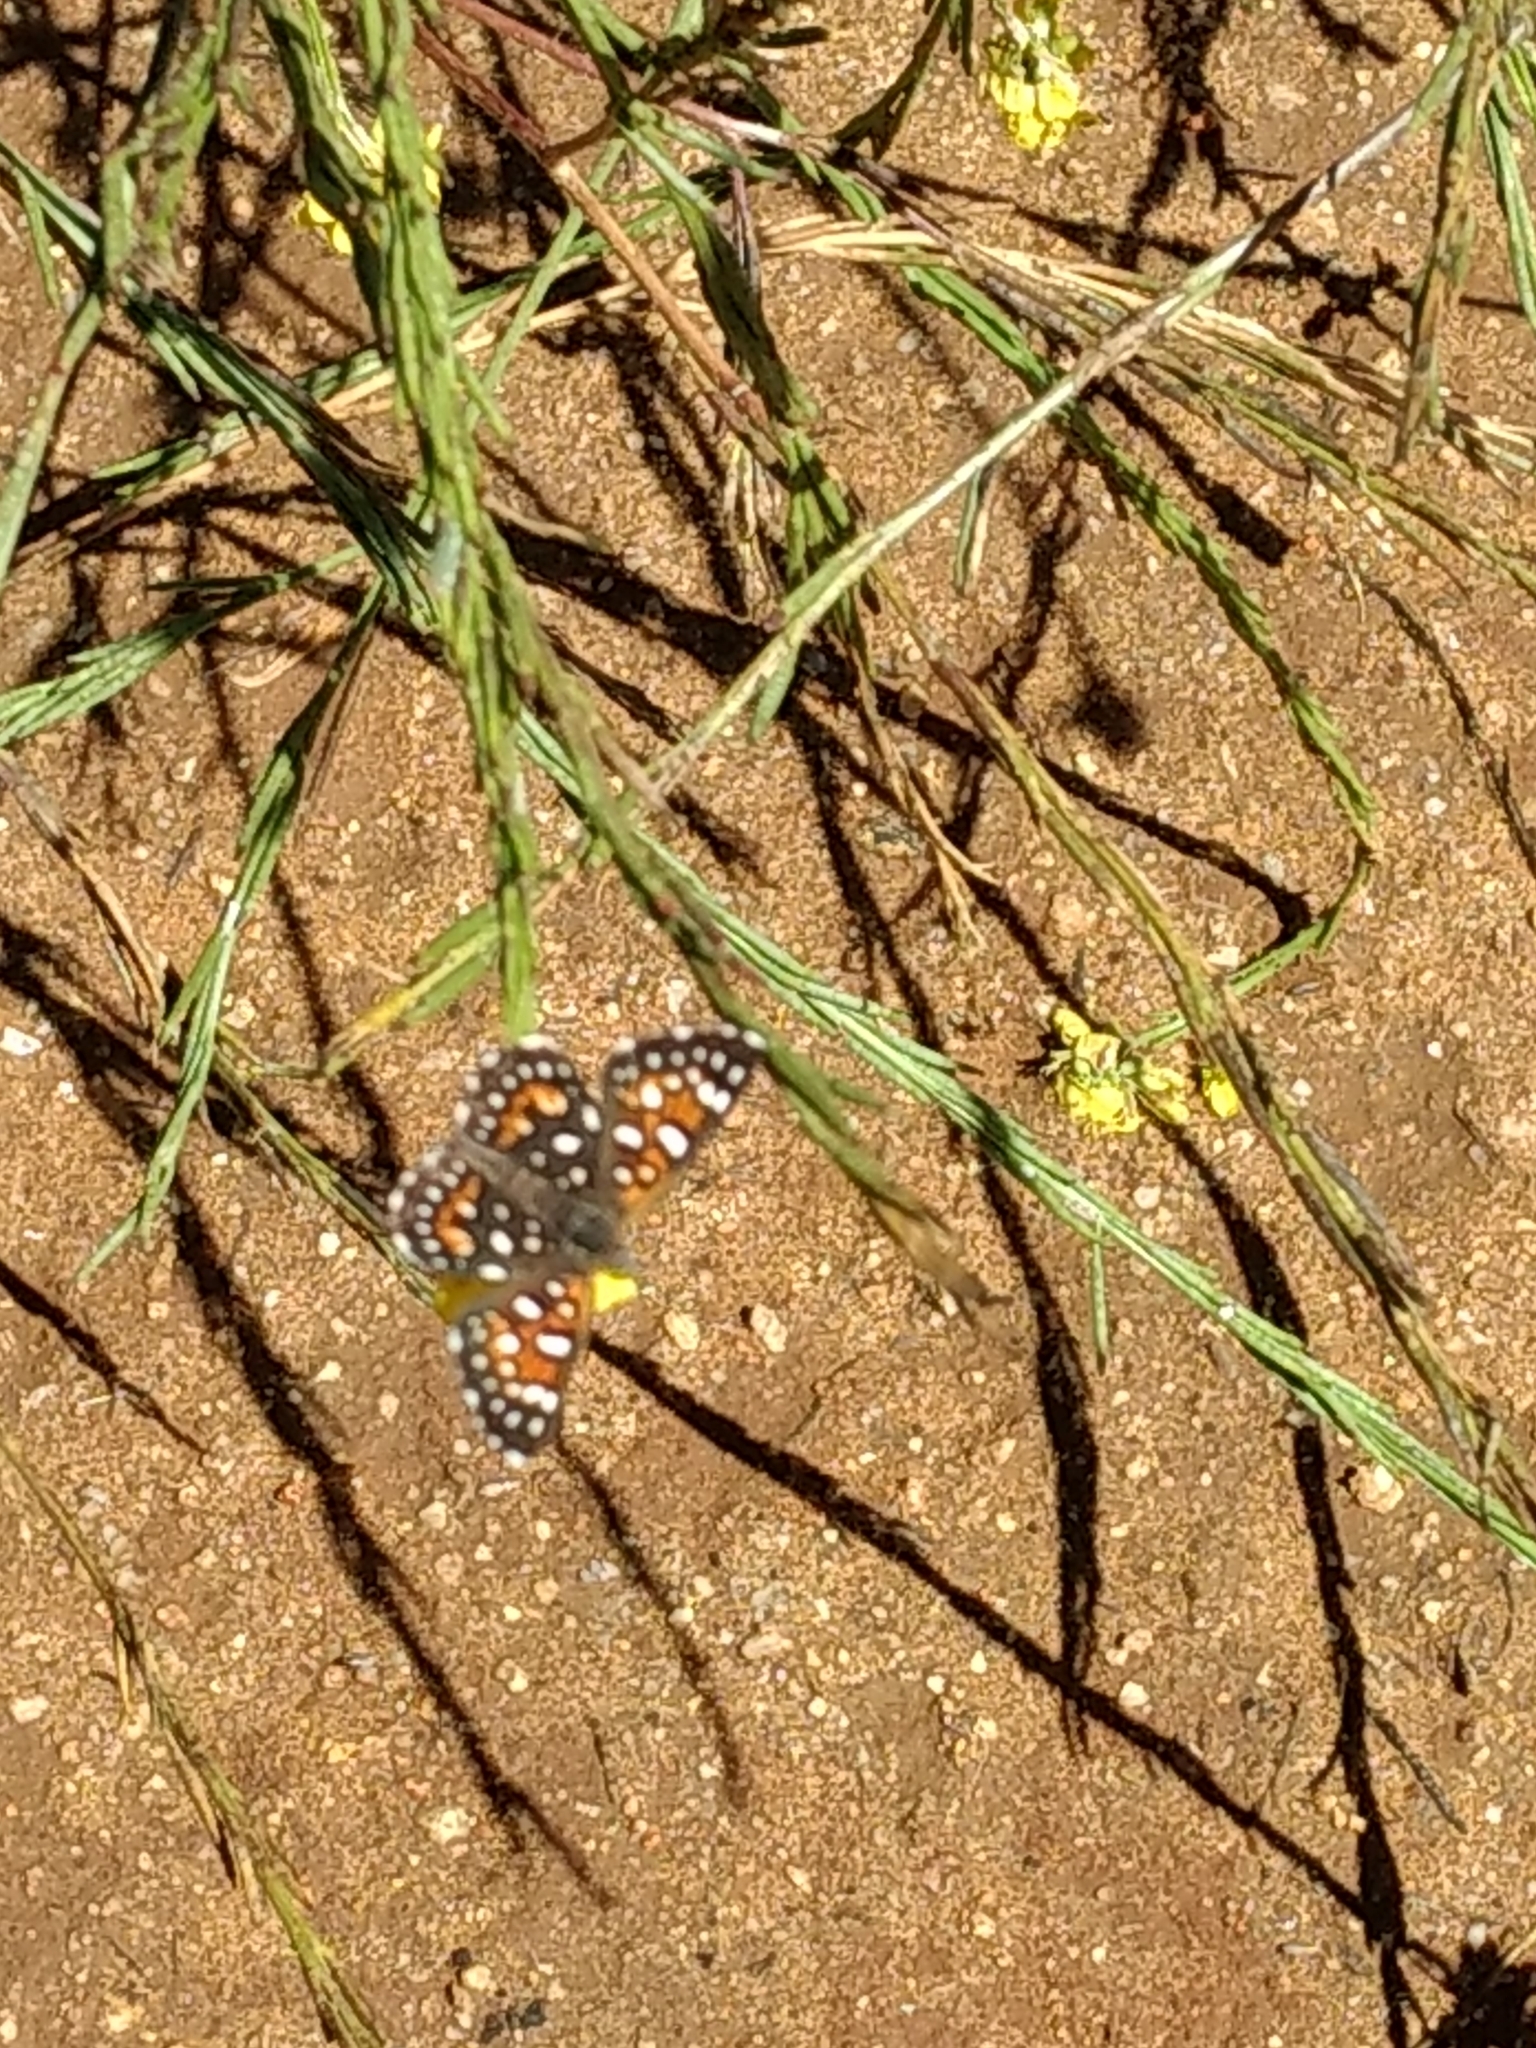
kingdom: Animalia
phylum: Arthropoda
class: Insecta
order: Lepidoptera
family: Riodinidae
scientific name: Riodinidae
